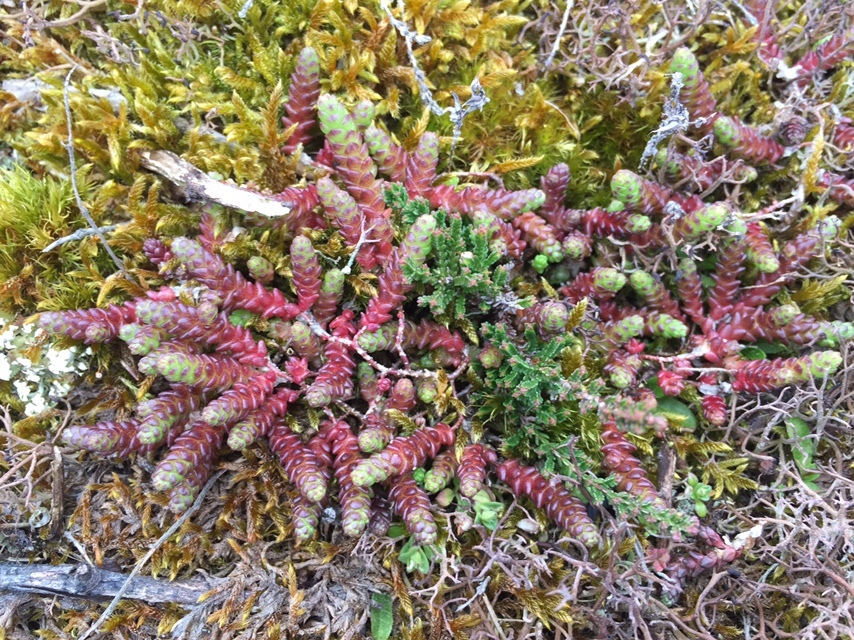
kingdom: Plantae
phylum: Tracheophyta
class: Magnoliopsida
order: Saxifragales
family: Crassulaceae
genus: Sedum
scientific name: Sedum acre
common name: Biting stonecrop
